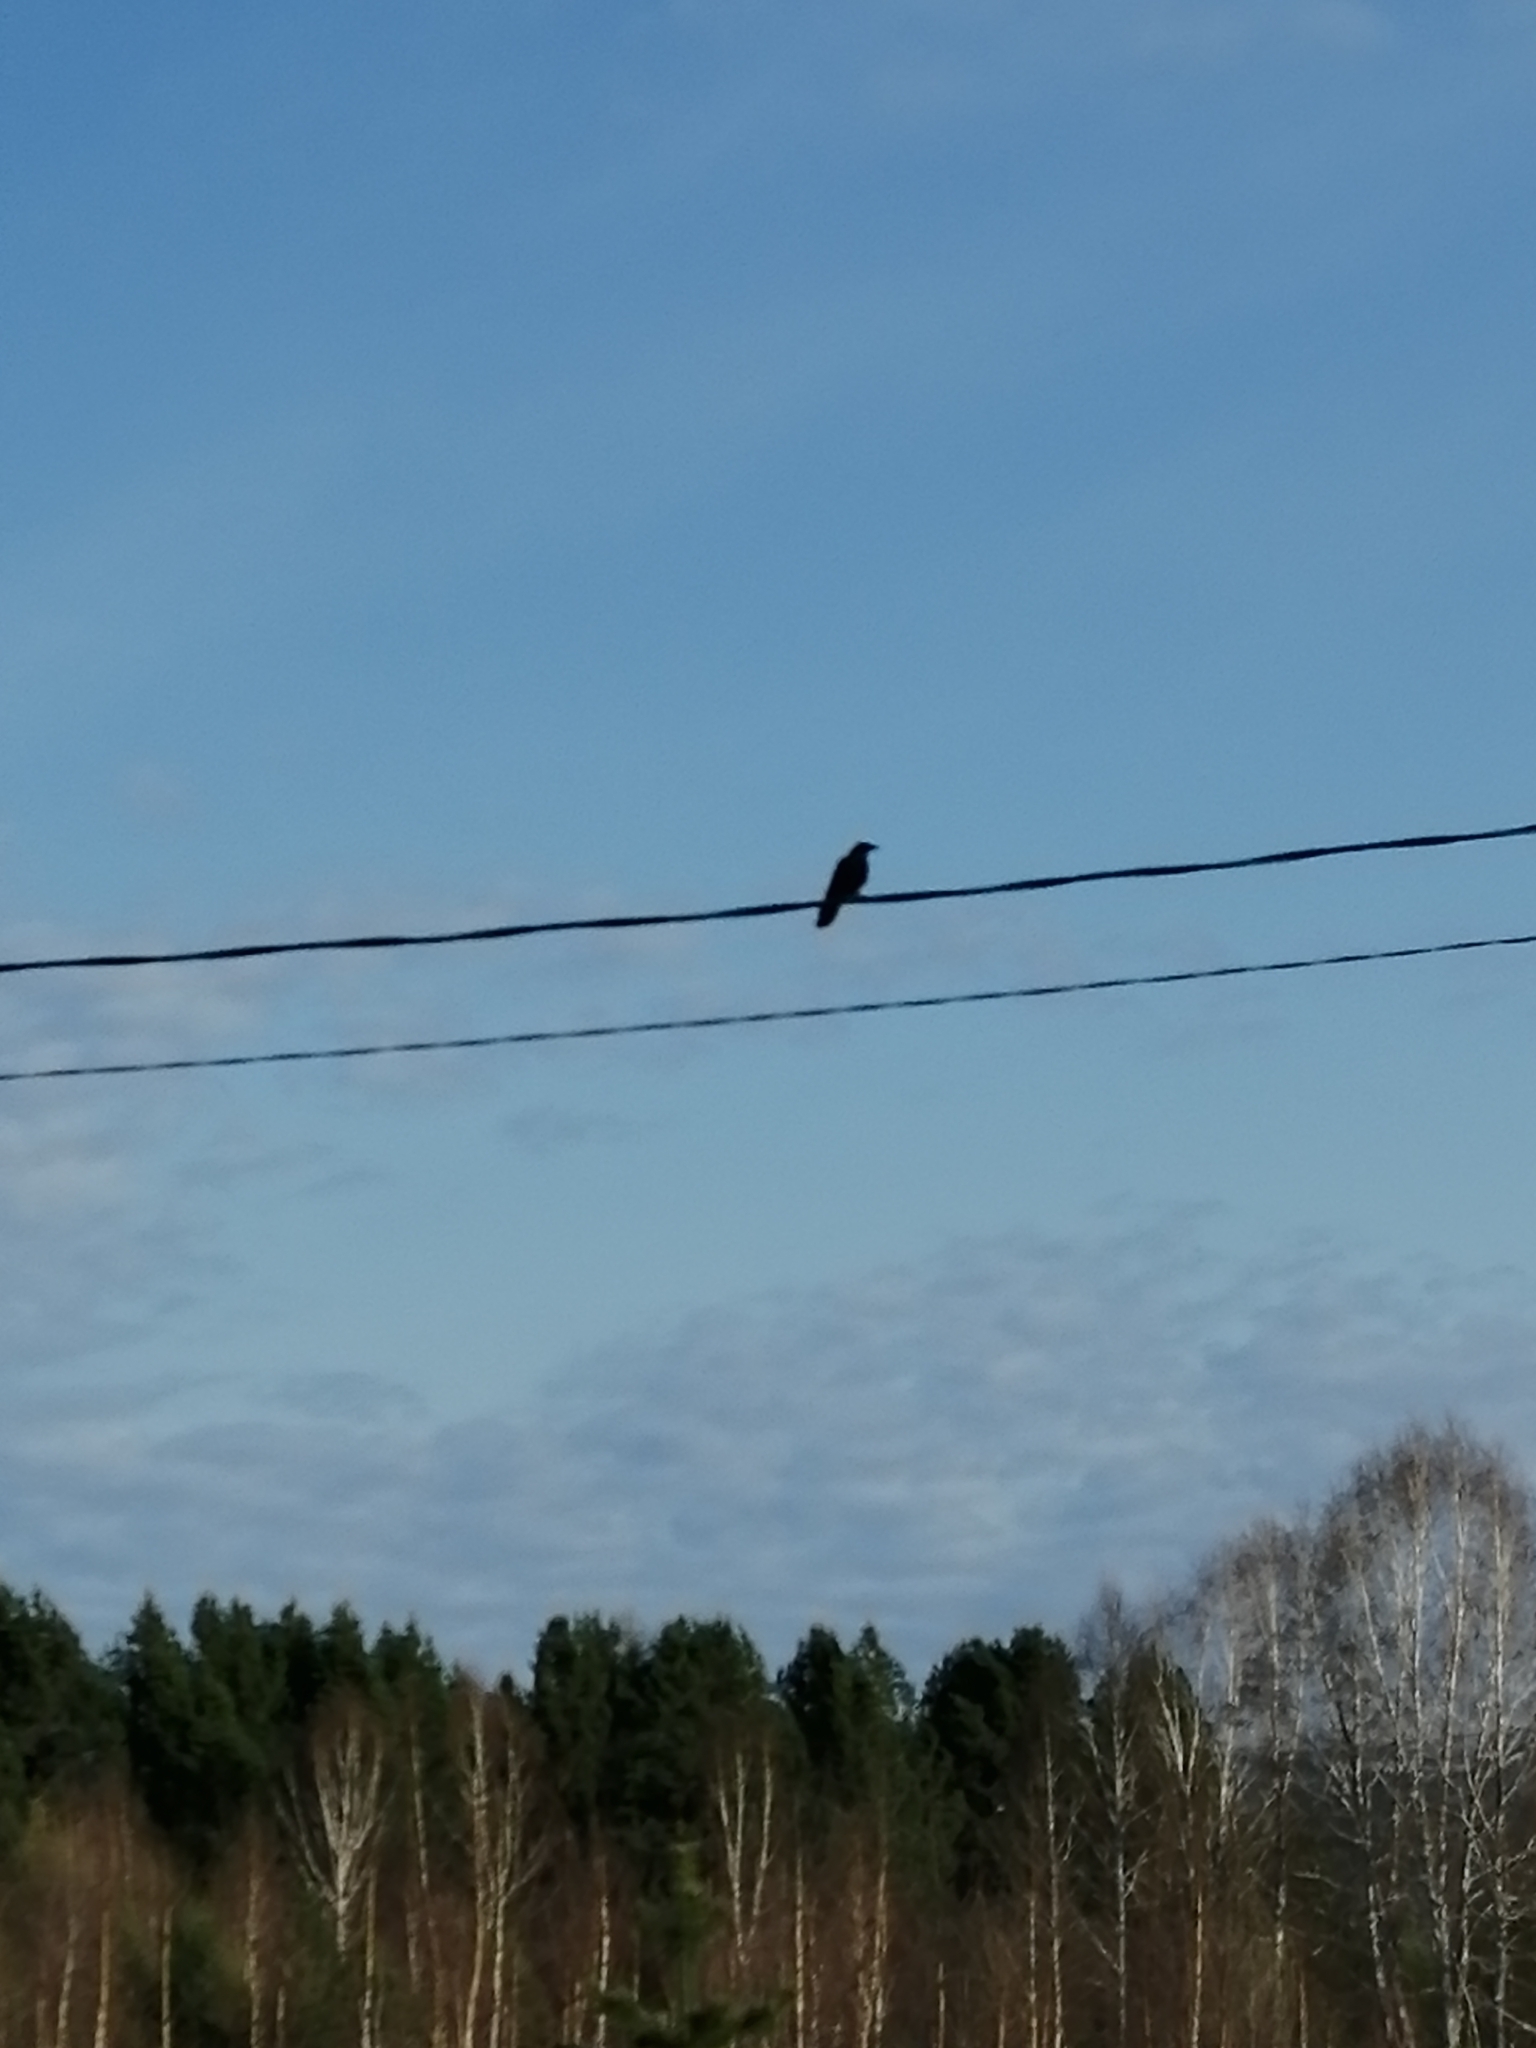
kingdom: Animalia
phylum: Chordata
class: Aves
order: Passeriformes
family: Corvidae
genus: Corvus
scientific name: Corvus corone
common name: Carrion crow
